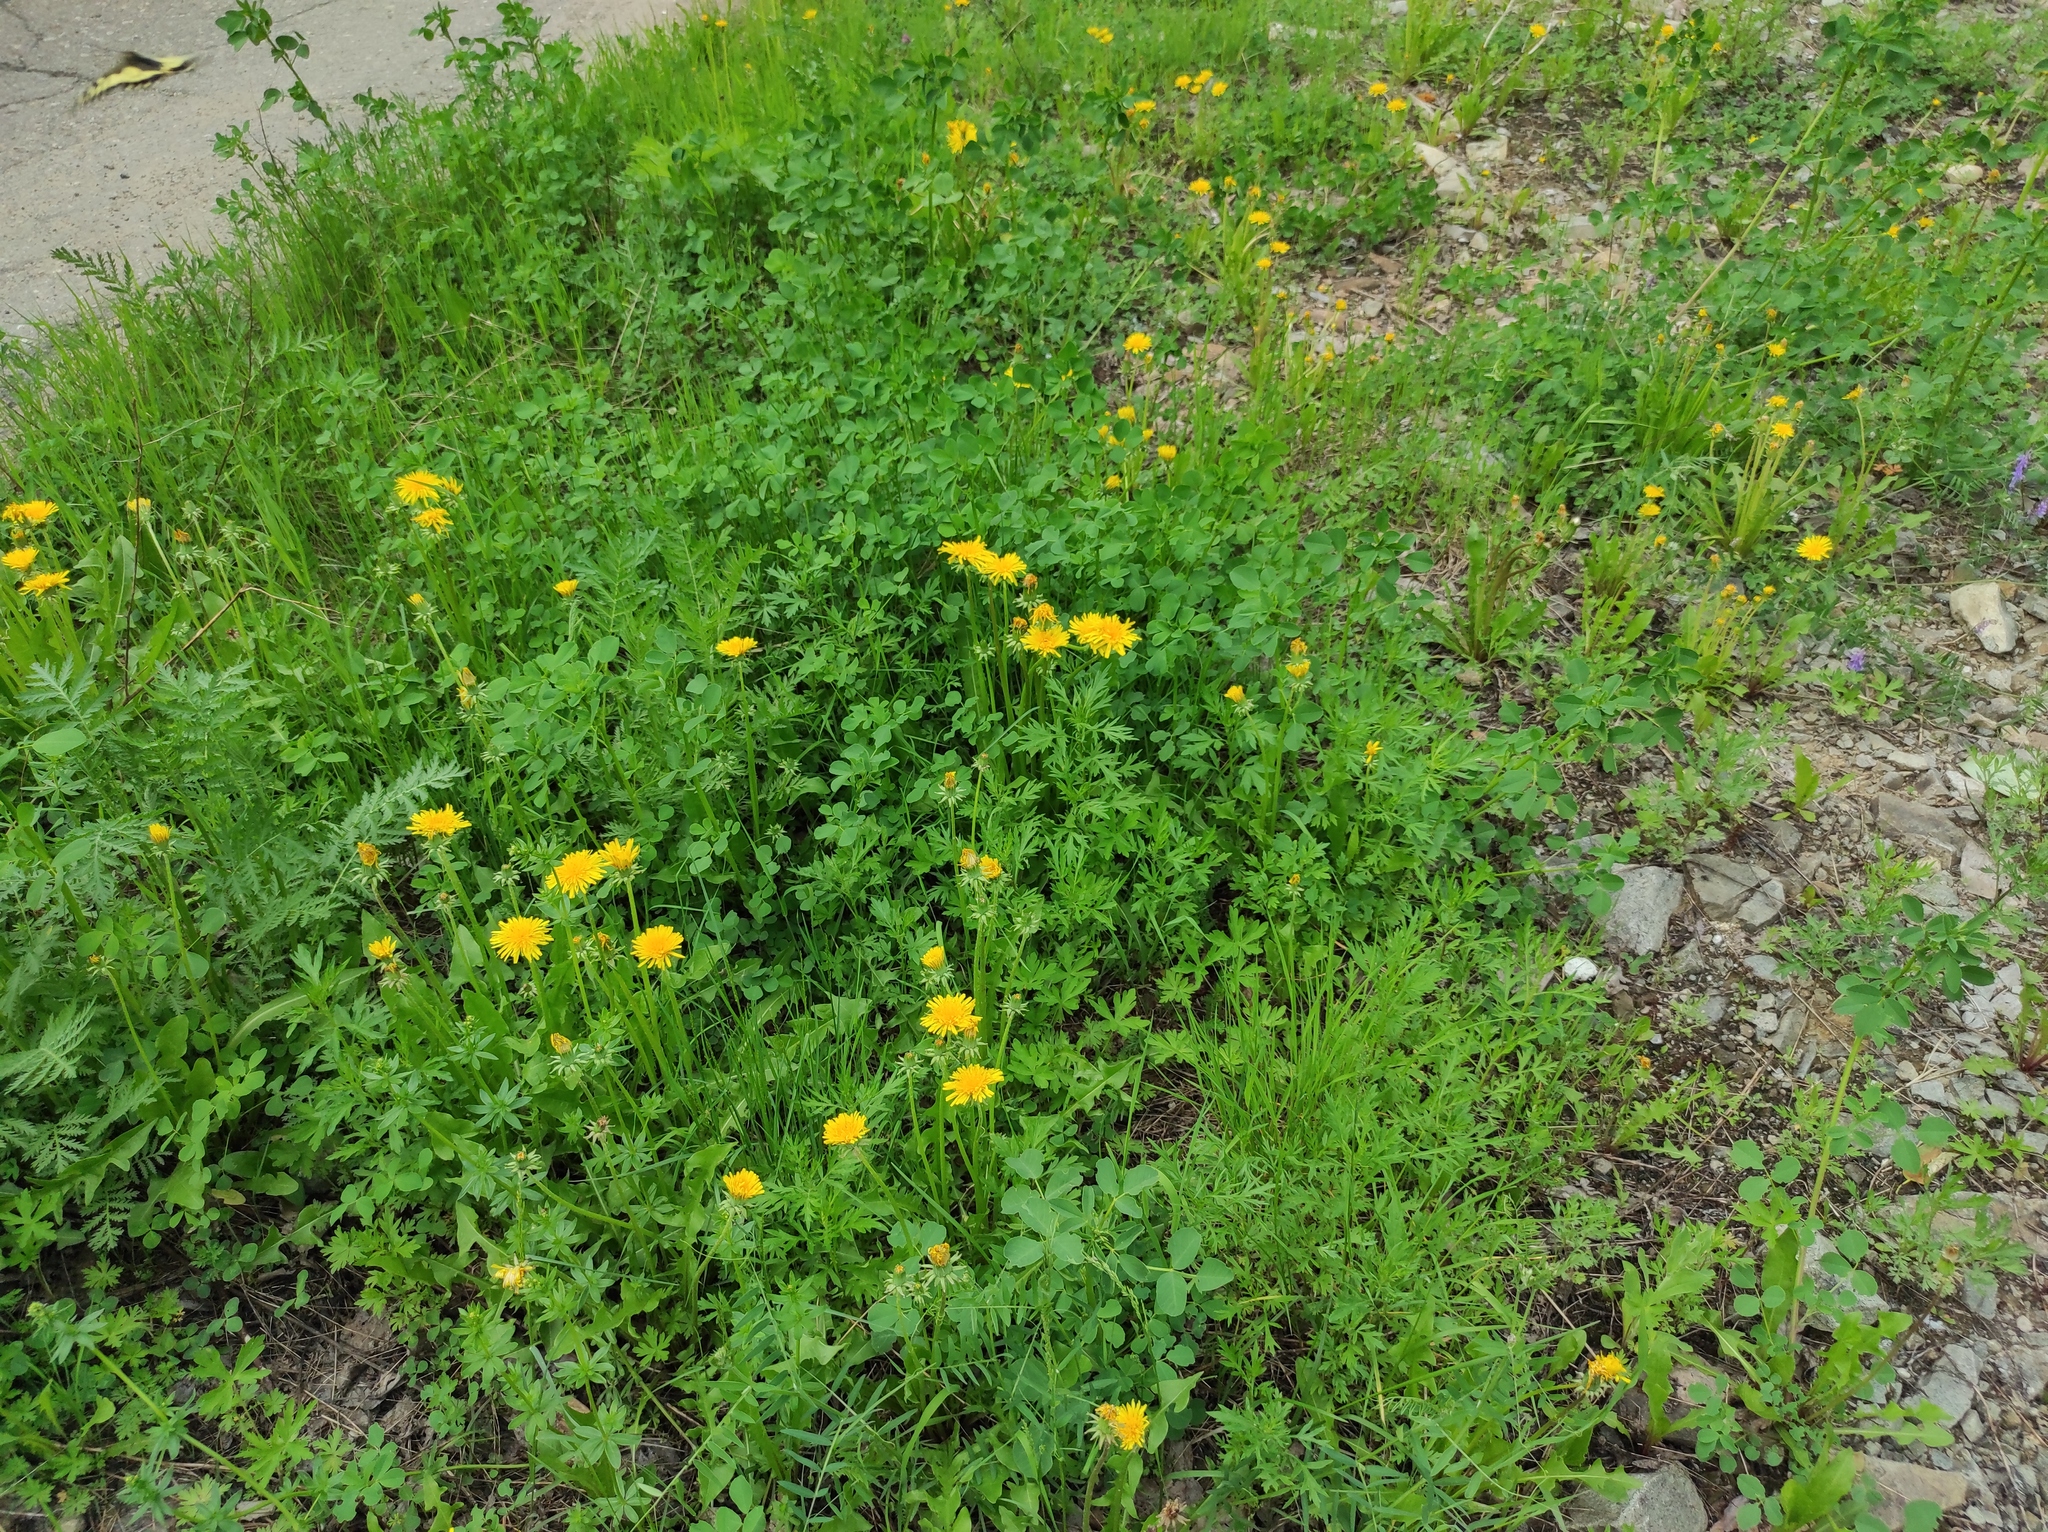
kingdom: Animalia
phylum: Arthropoda
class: Insecta
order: Lepidoptera
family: Papilionidae
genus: Papilio
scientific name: Papilio machaon
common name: Swallowtail
